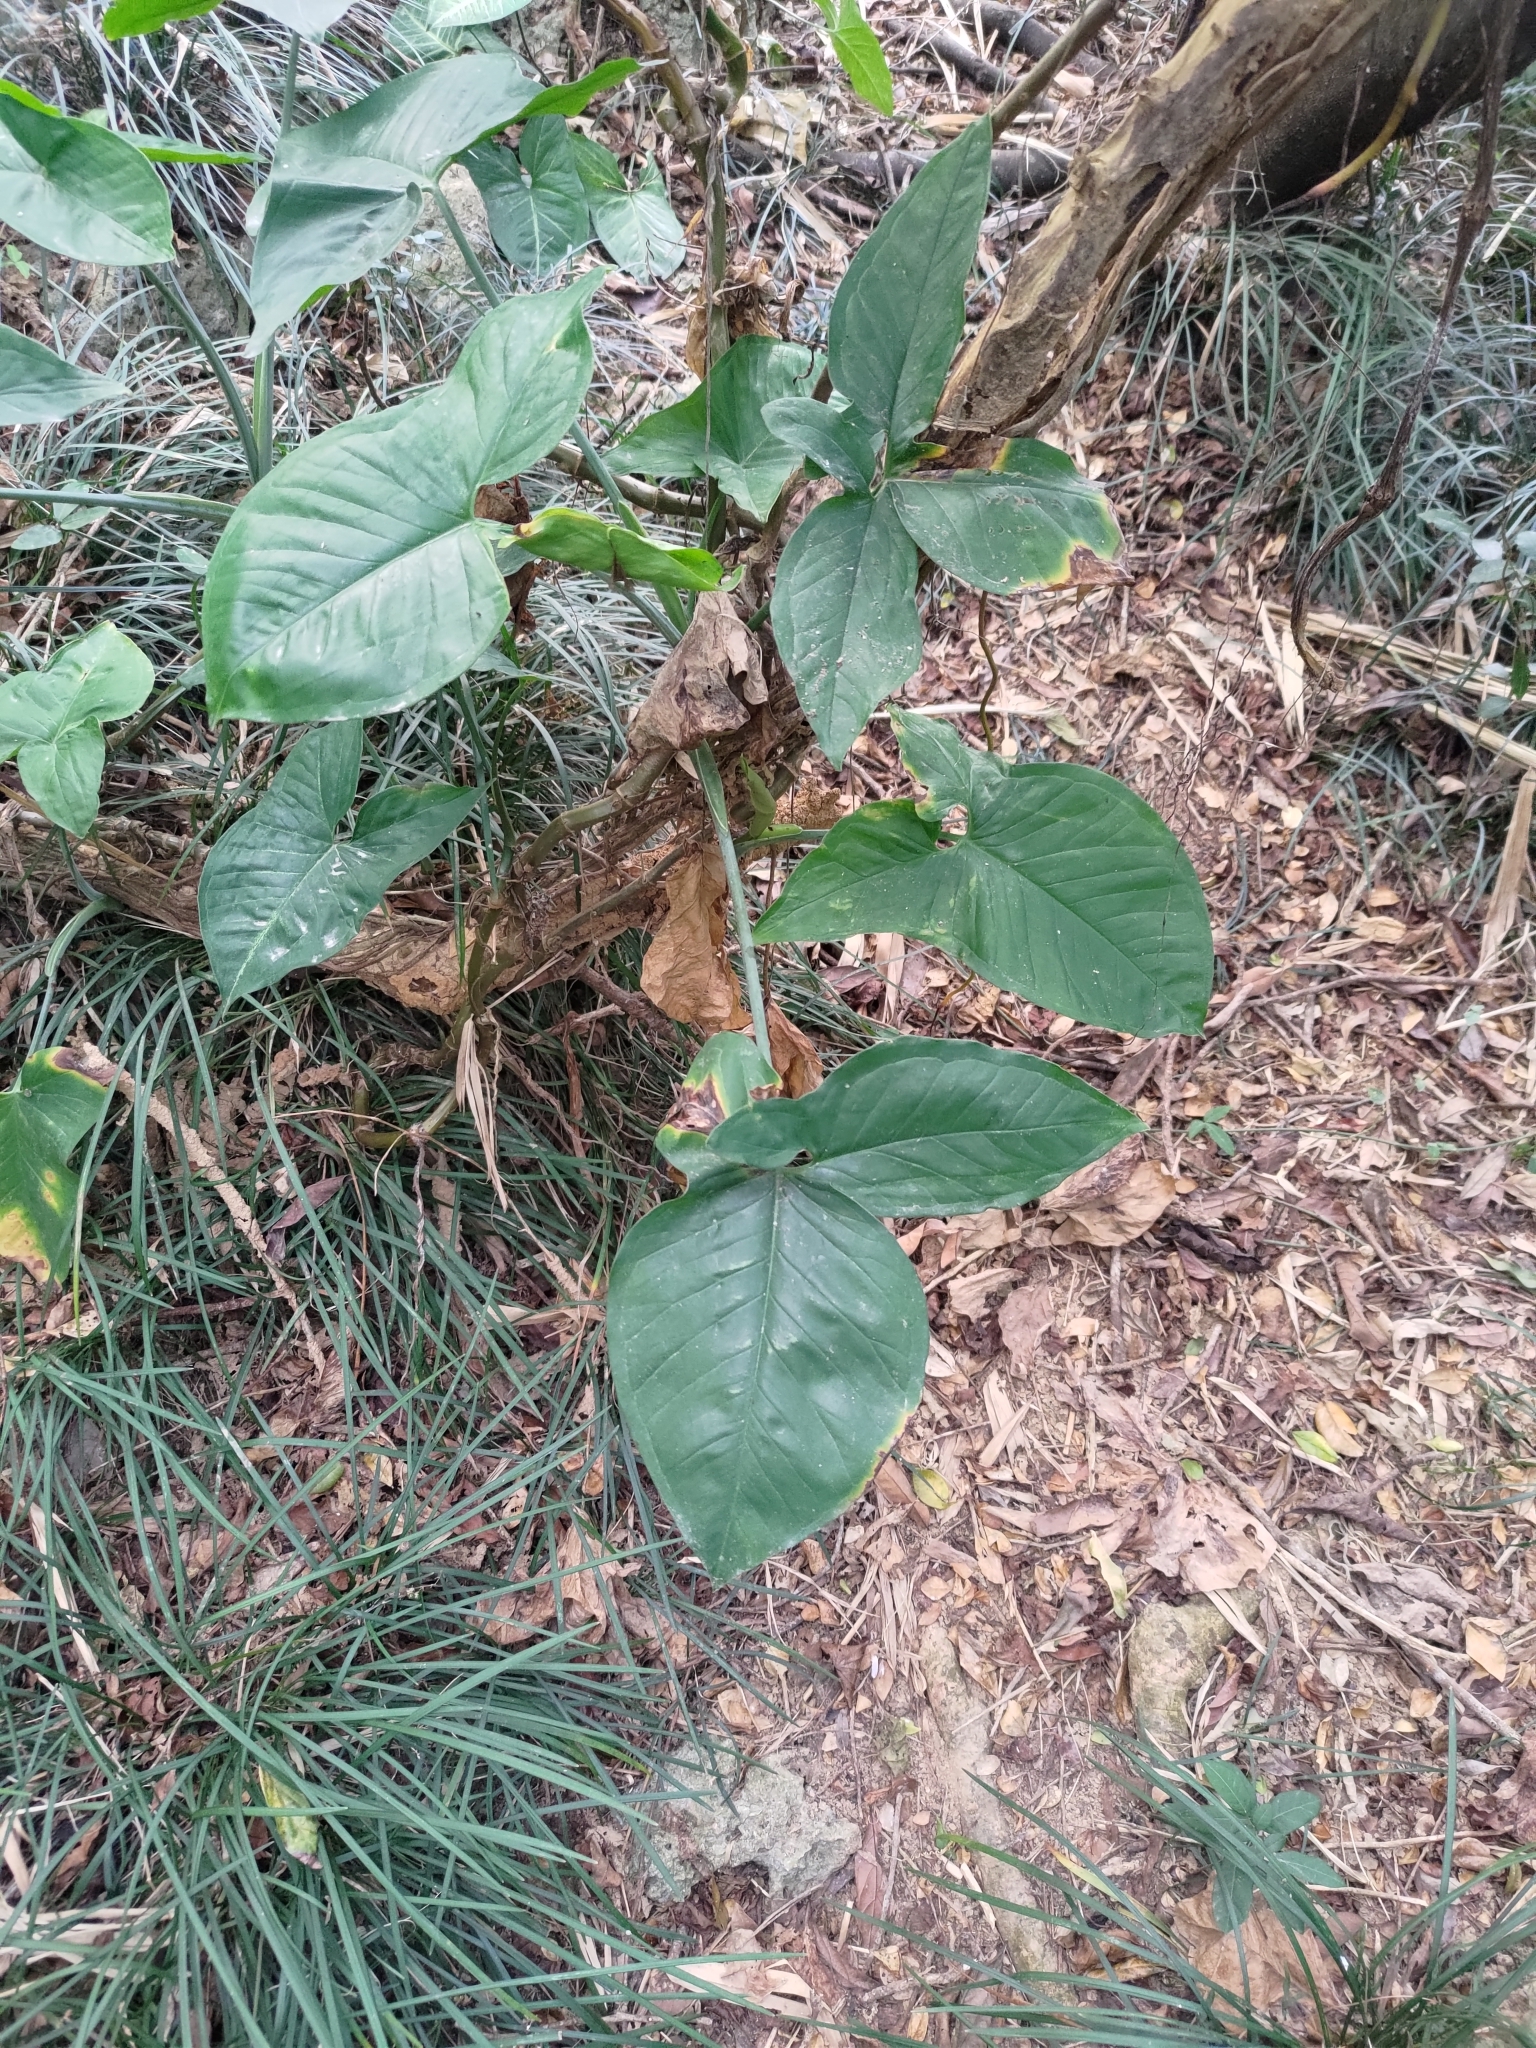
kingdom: Plantae
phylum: Tracheophyta
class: Liliopsida
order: Alismatales
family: Araceae
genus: Syngonium
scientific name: Syngonium podophyllum
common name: American evergreen
